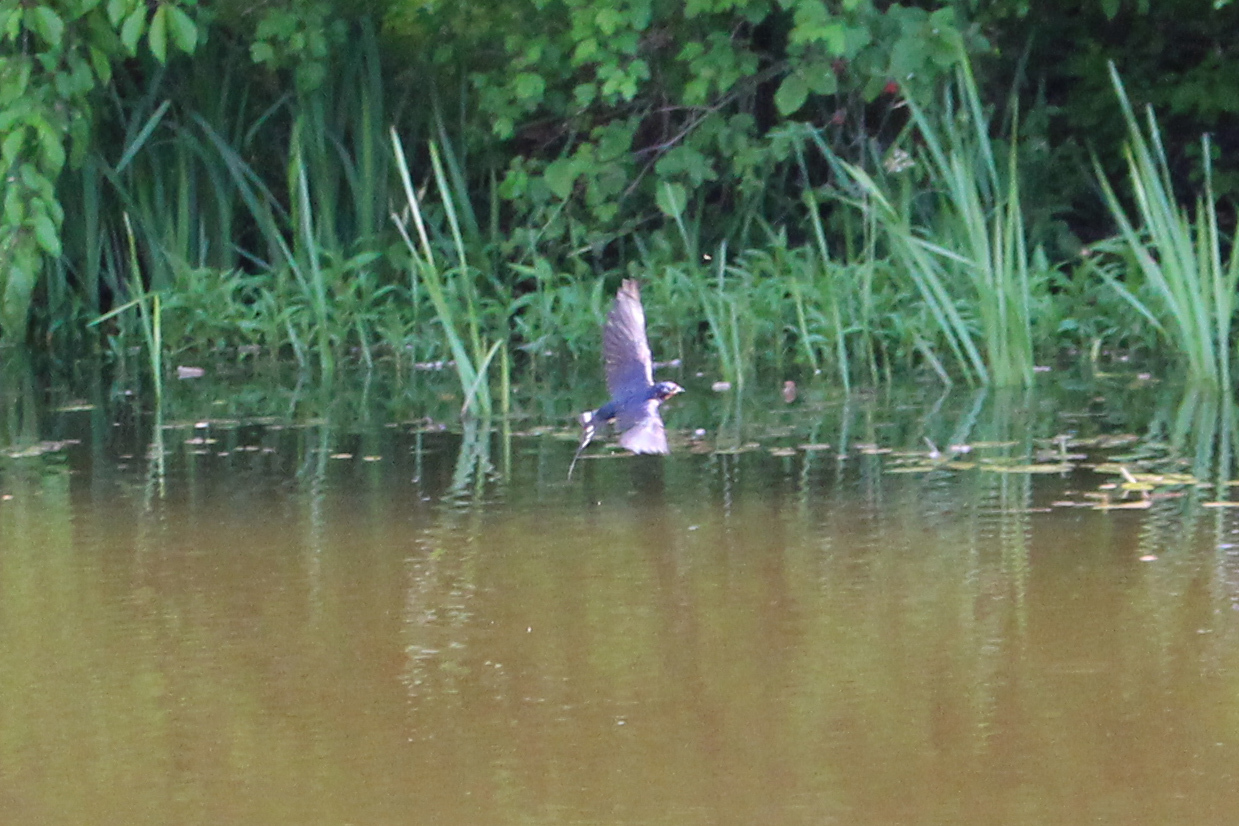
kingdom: Animalia
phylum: Chordata
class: Aves
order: Passeriformes
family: Hirundinidae
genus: Hirundo
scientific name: Hirundo rustica
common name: Barn swallow
